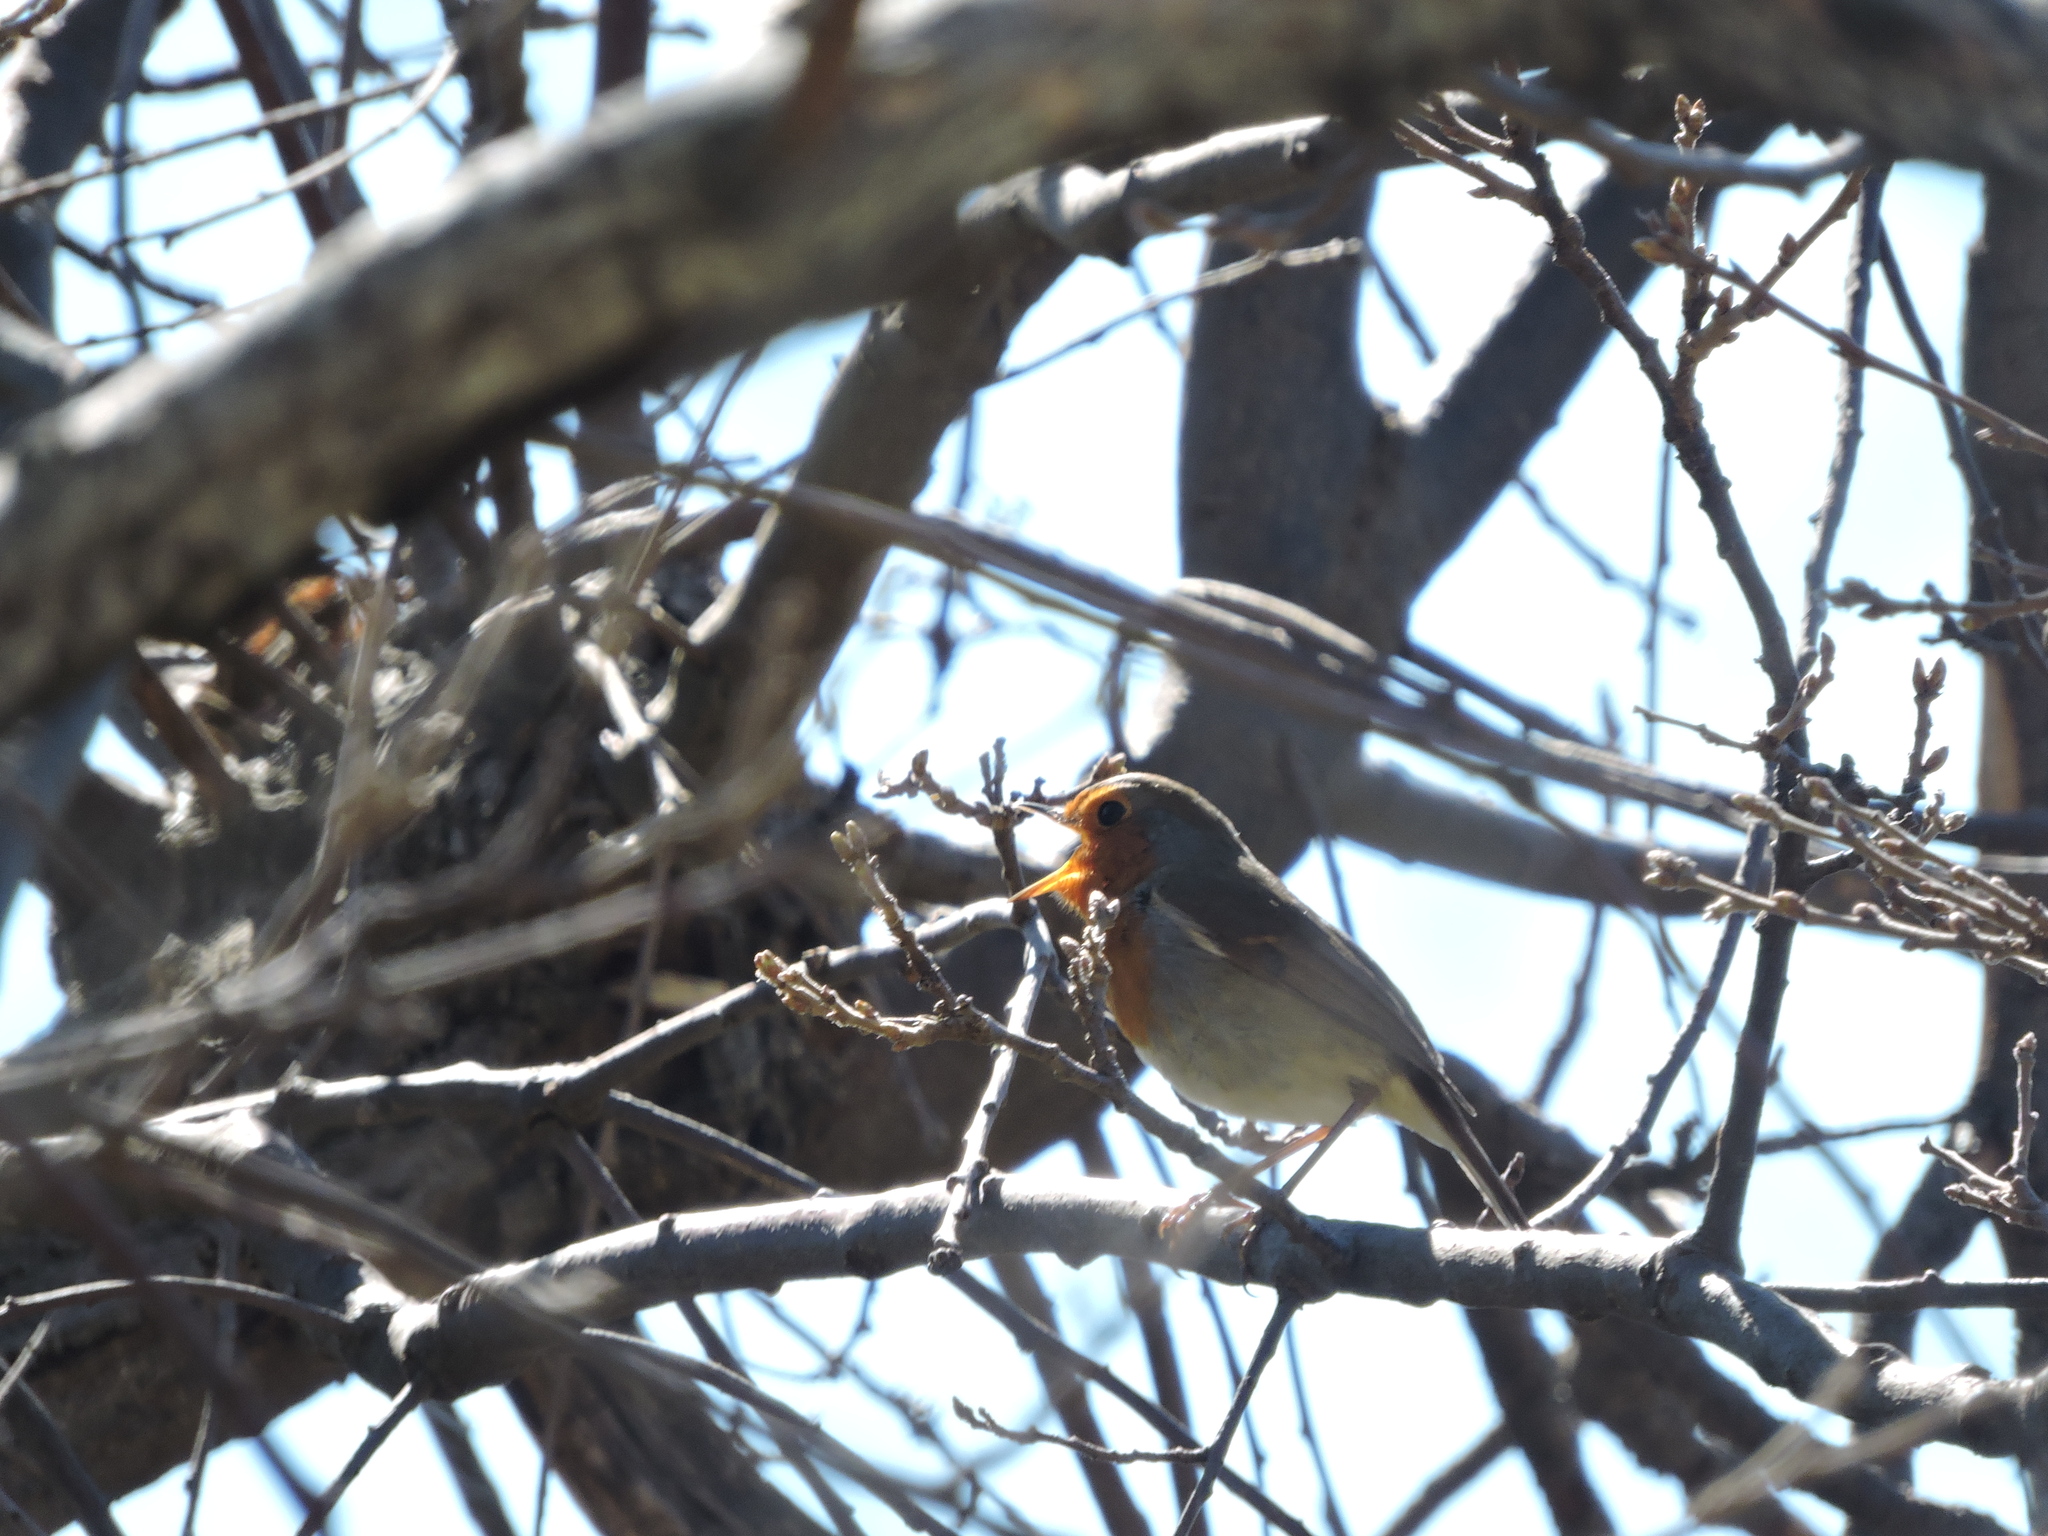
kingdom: Animalia
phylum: Chordata
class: Aves
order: Passeriformes
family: Muscicapidae
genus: Erithacus
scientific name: Erithacus rubecula
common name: European robin
